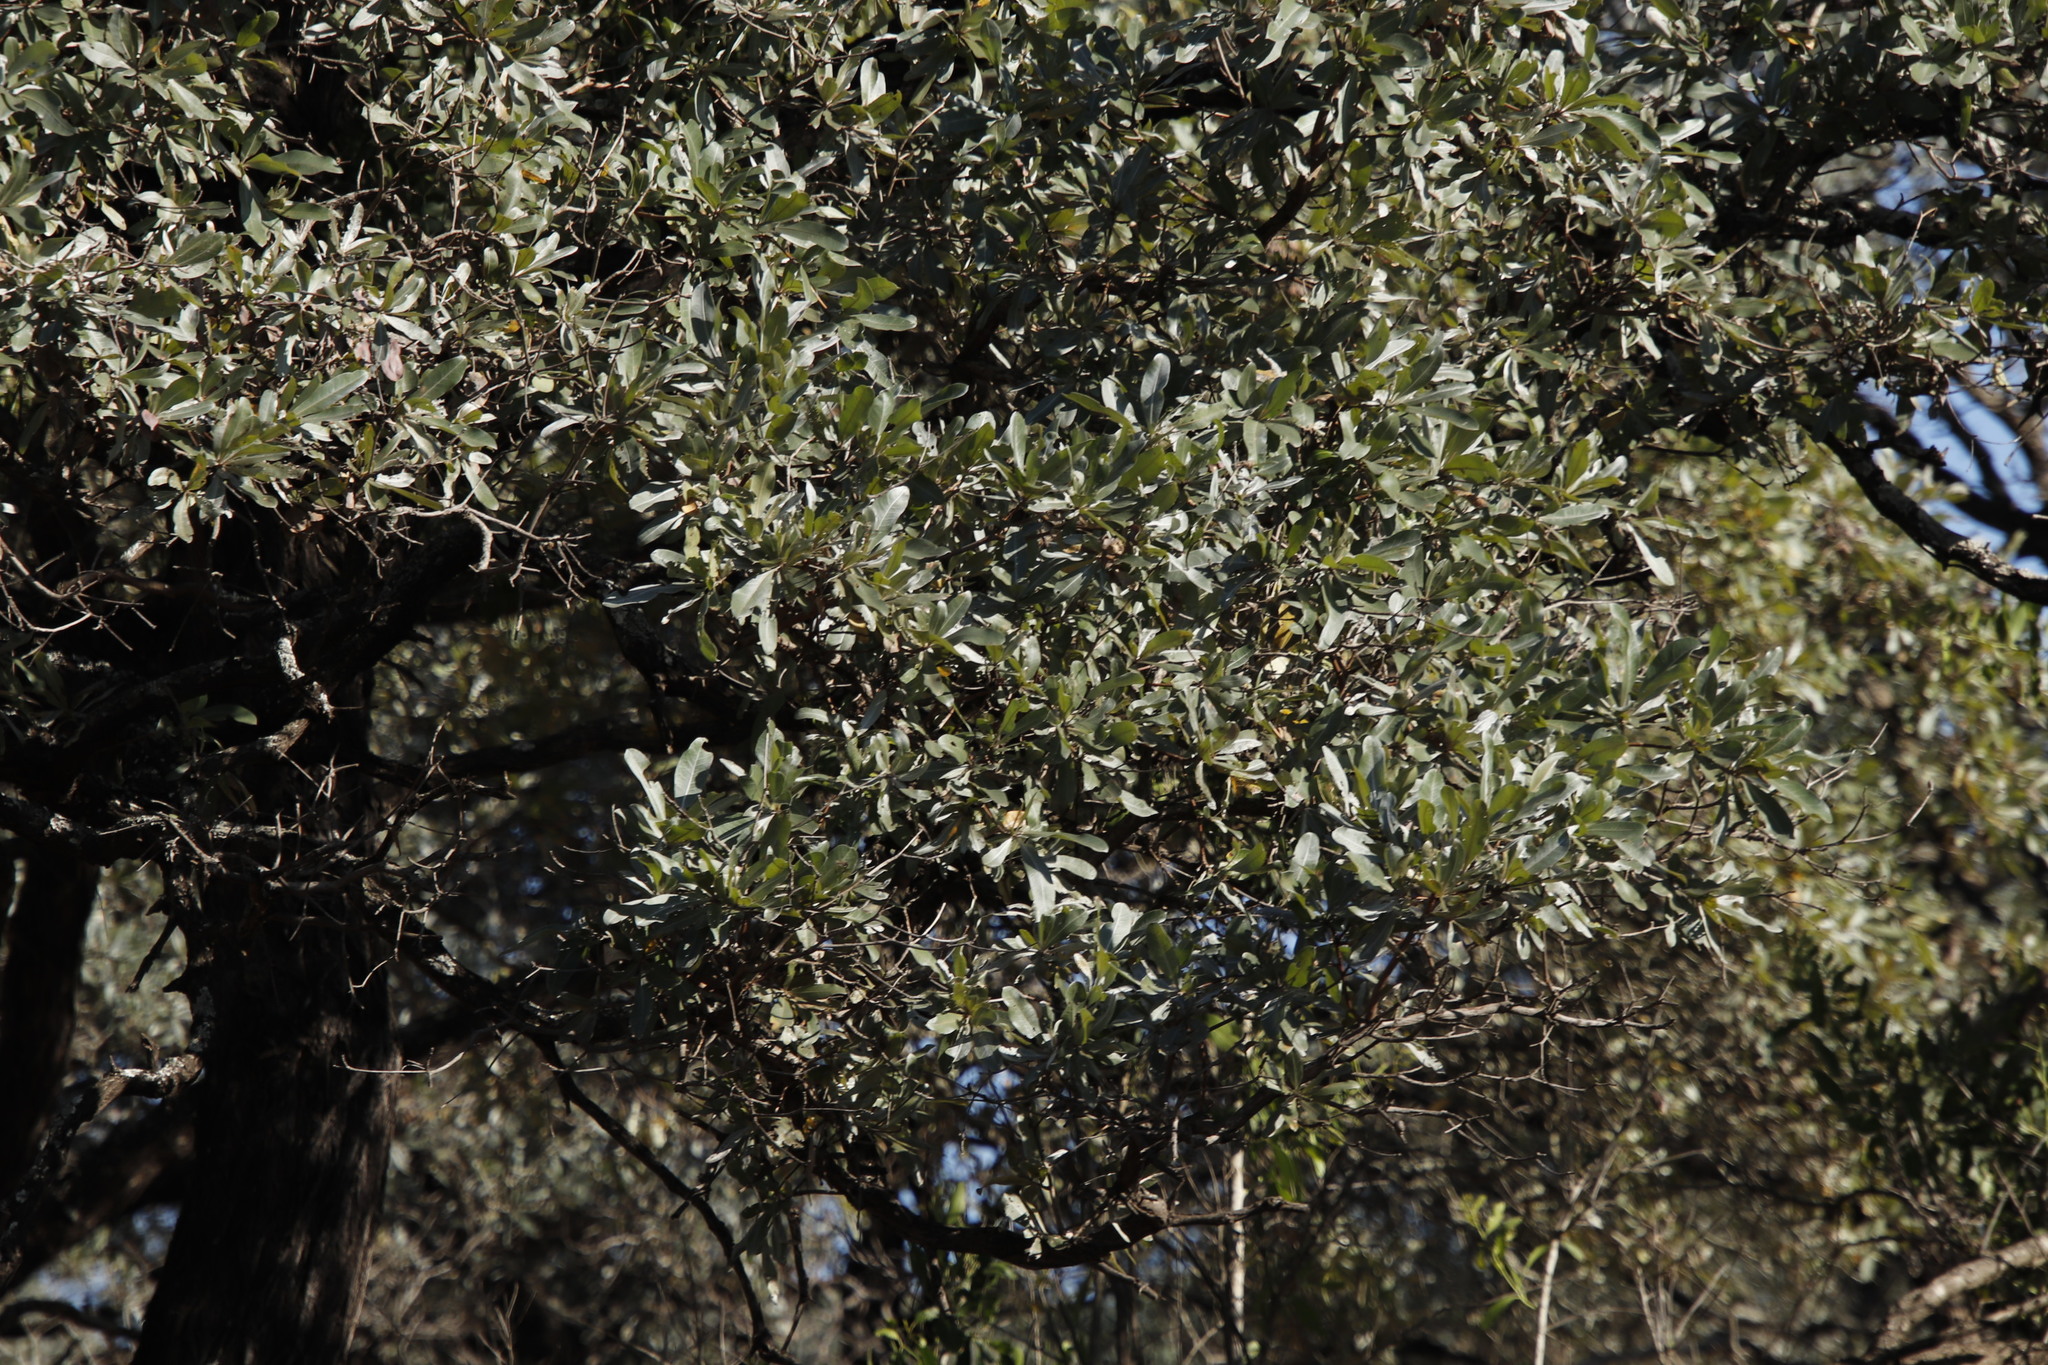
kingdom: Plantae
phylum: Tracheophyta
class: Magnoliopsida
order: Myrtales
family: Combretaceae
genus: Terminalia
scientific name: Terminalia sericea
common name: Clusterleaf
